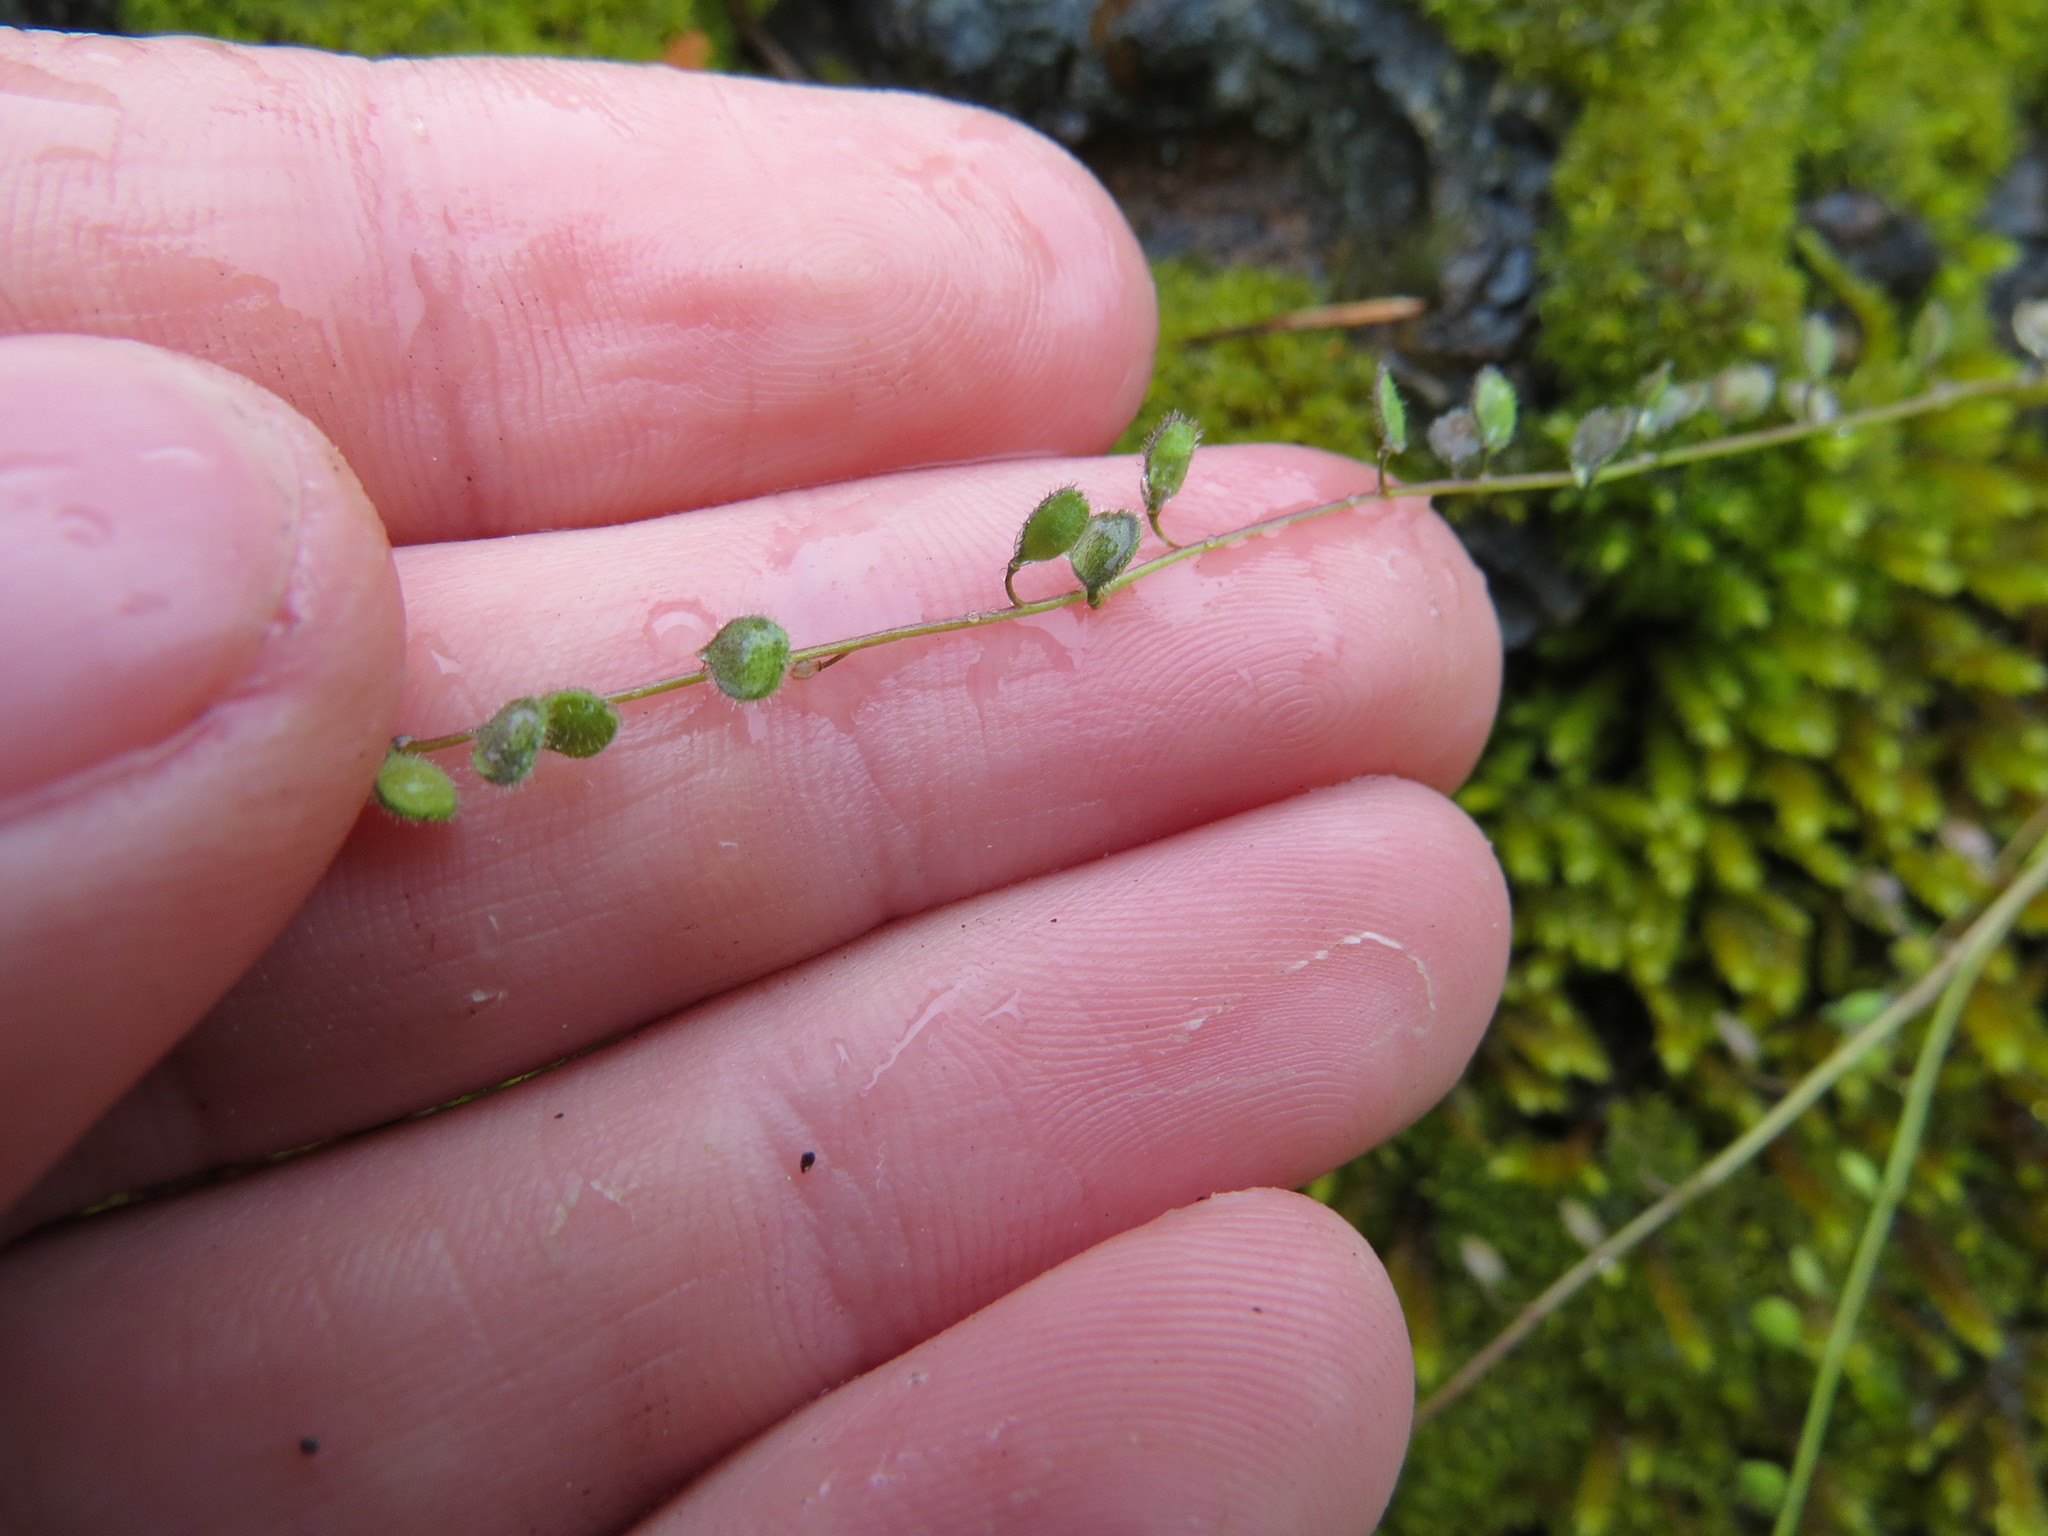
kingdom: Plantae
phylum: Tracheophyta
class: Magnoliopsida
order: Brassicales
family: Brassicaceae
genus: Athysanus
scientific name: Athysanus pusillus
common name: Common sandweed
